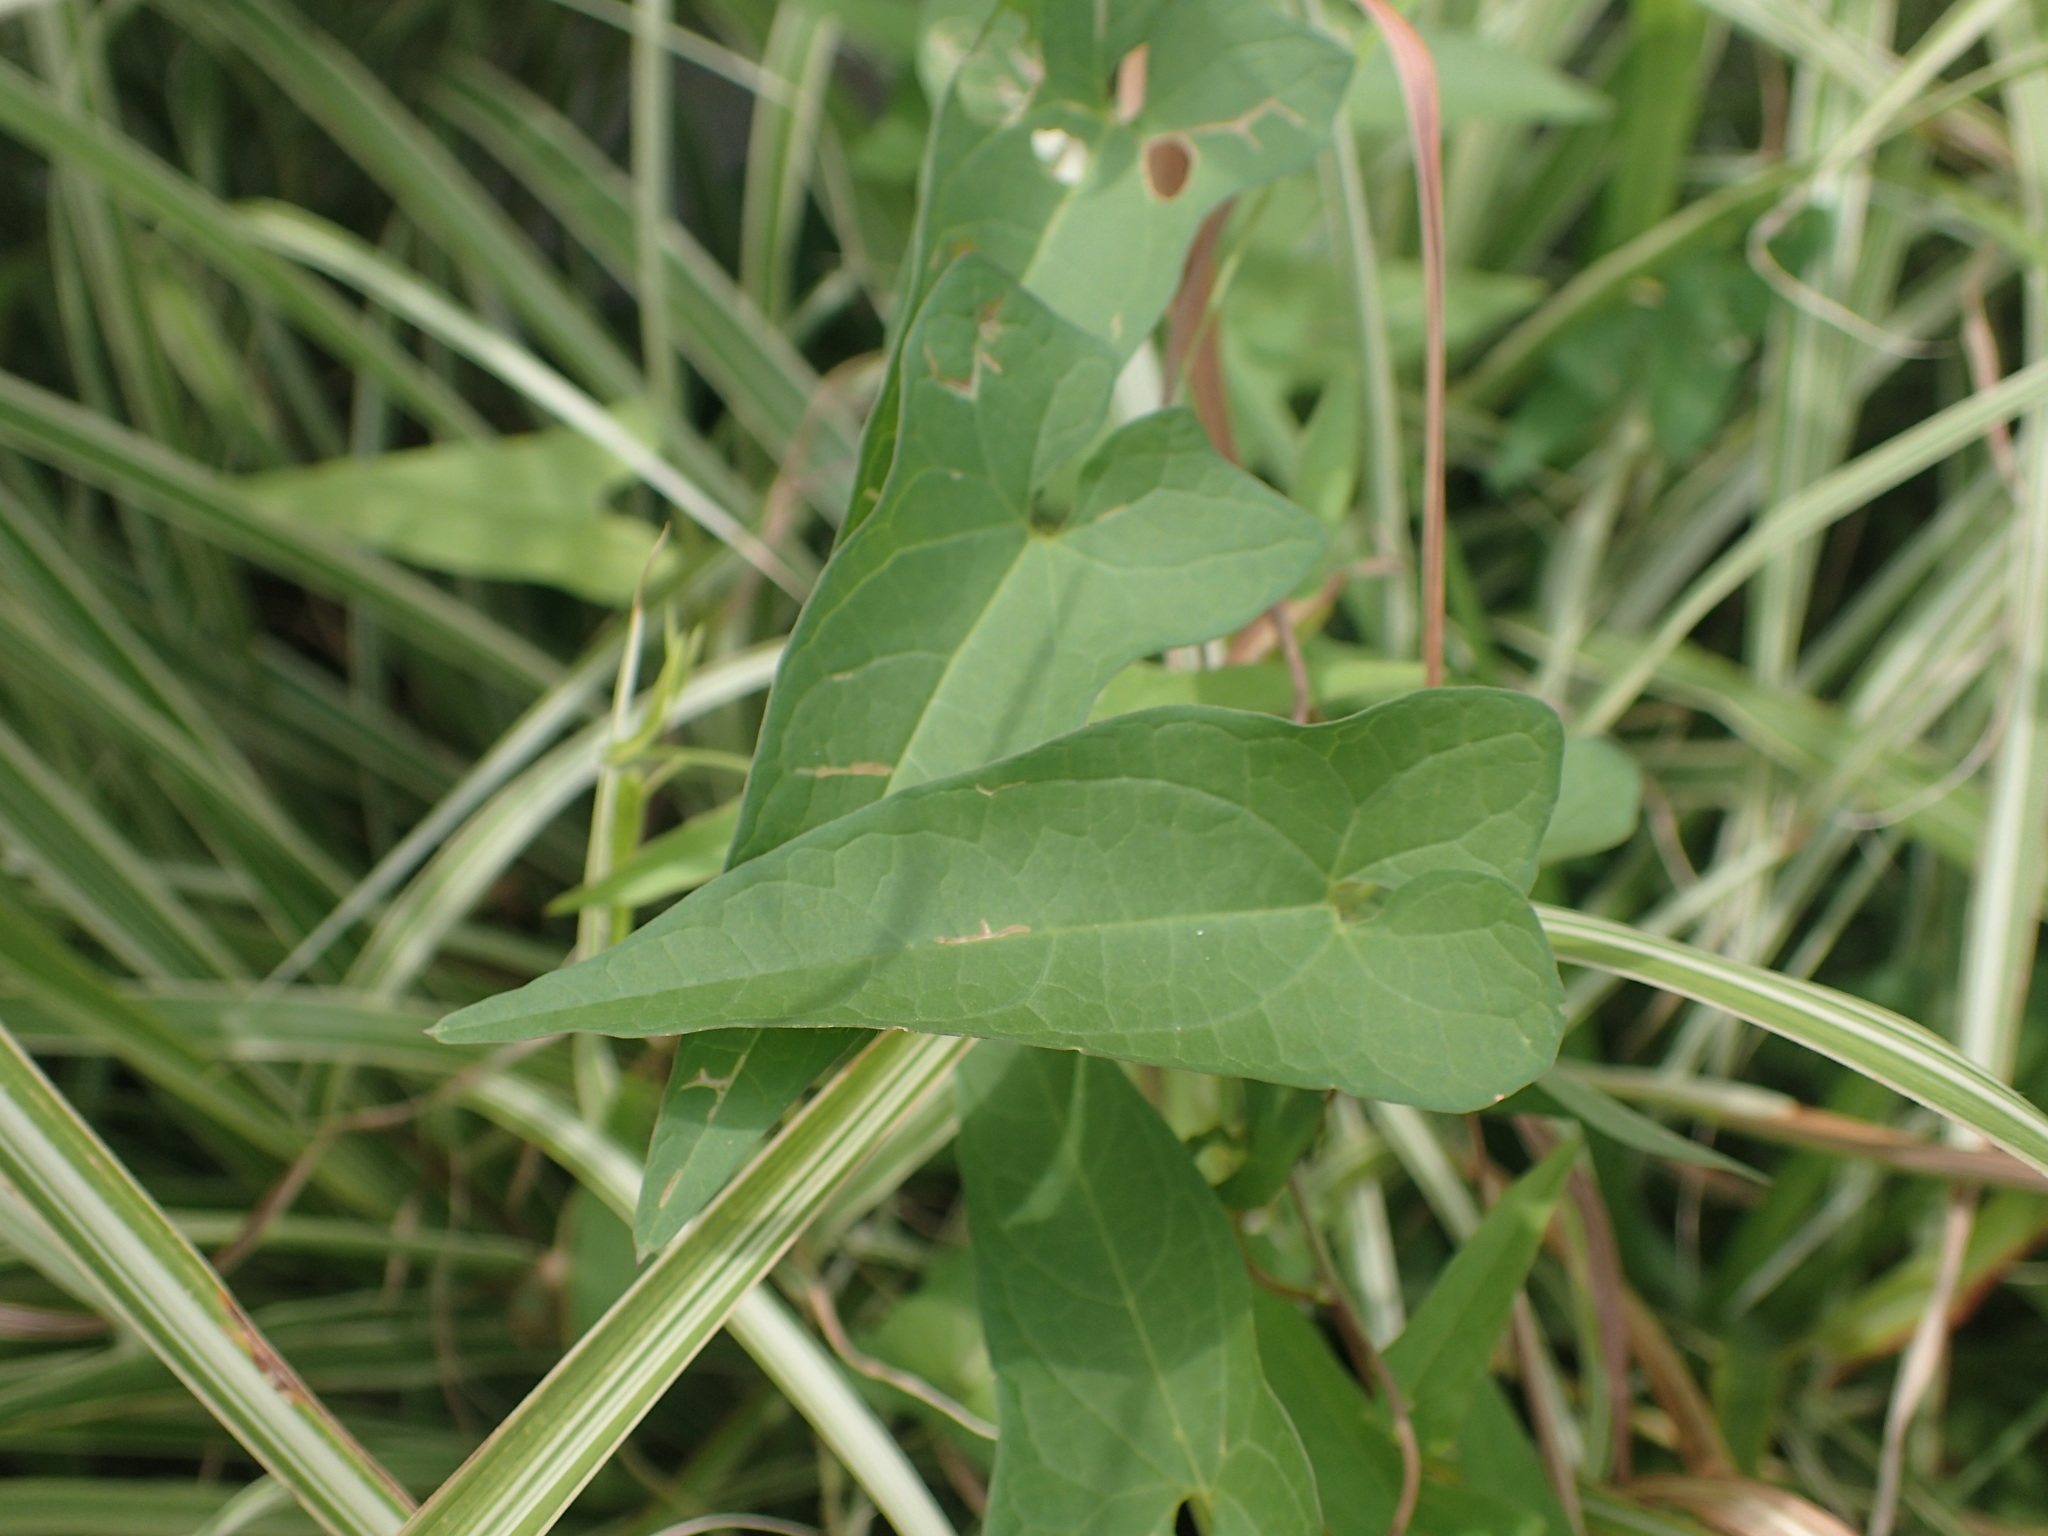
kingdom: Plantae
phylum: Tracheophyta
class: Magnoliopsida
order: Solanales
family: Convolvulaceae
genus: Calystegia
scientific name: Calystegia sepium
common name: Hedge bindweed
